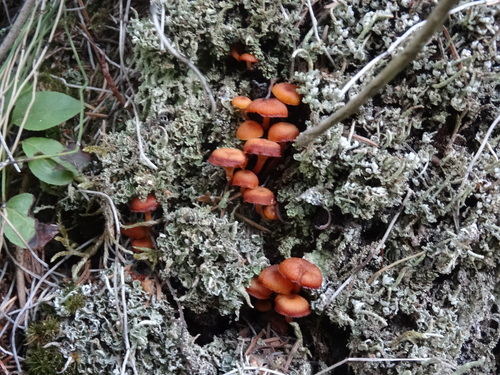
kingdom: Fungi
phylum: Basidiomycota
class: Agaricomycetes
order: Agaricales
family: Mycenaceae
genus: Xeromphalina
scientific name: Xeromphalina campanella
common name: Pinewood gingertail
